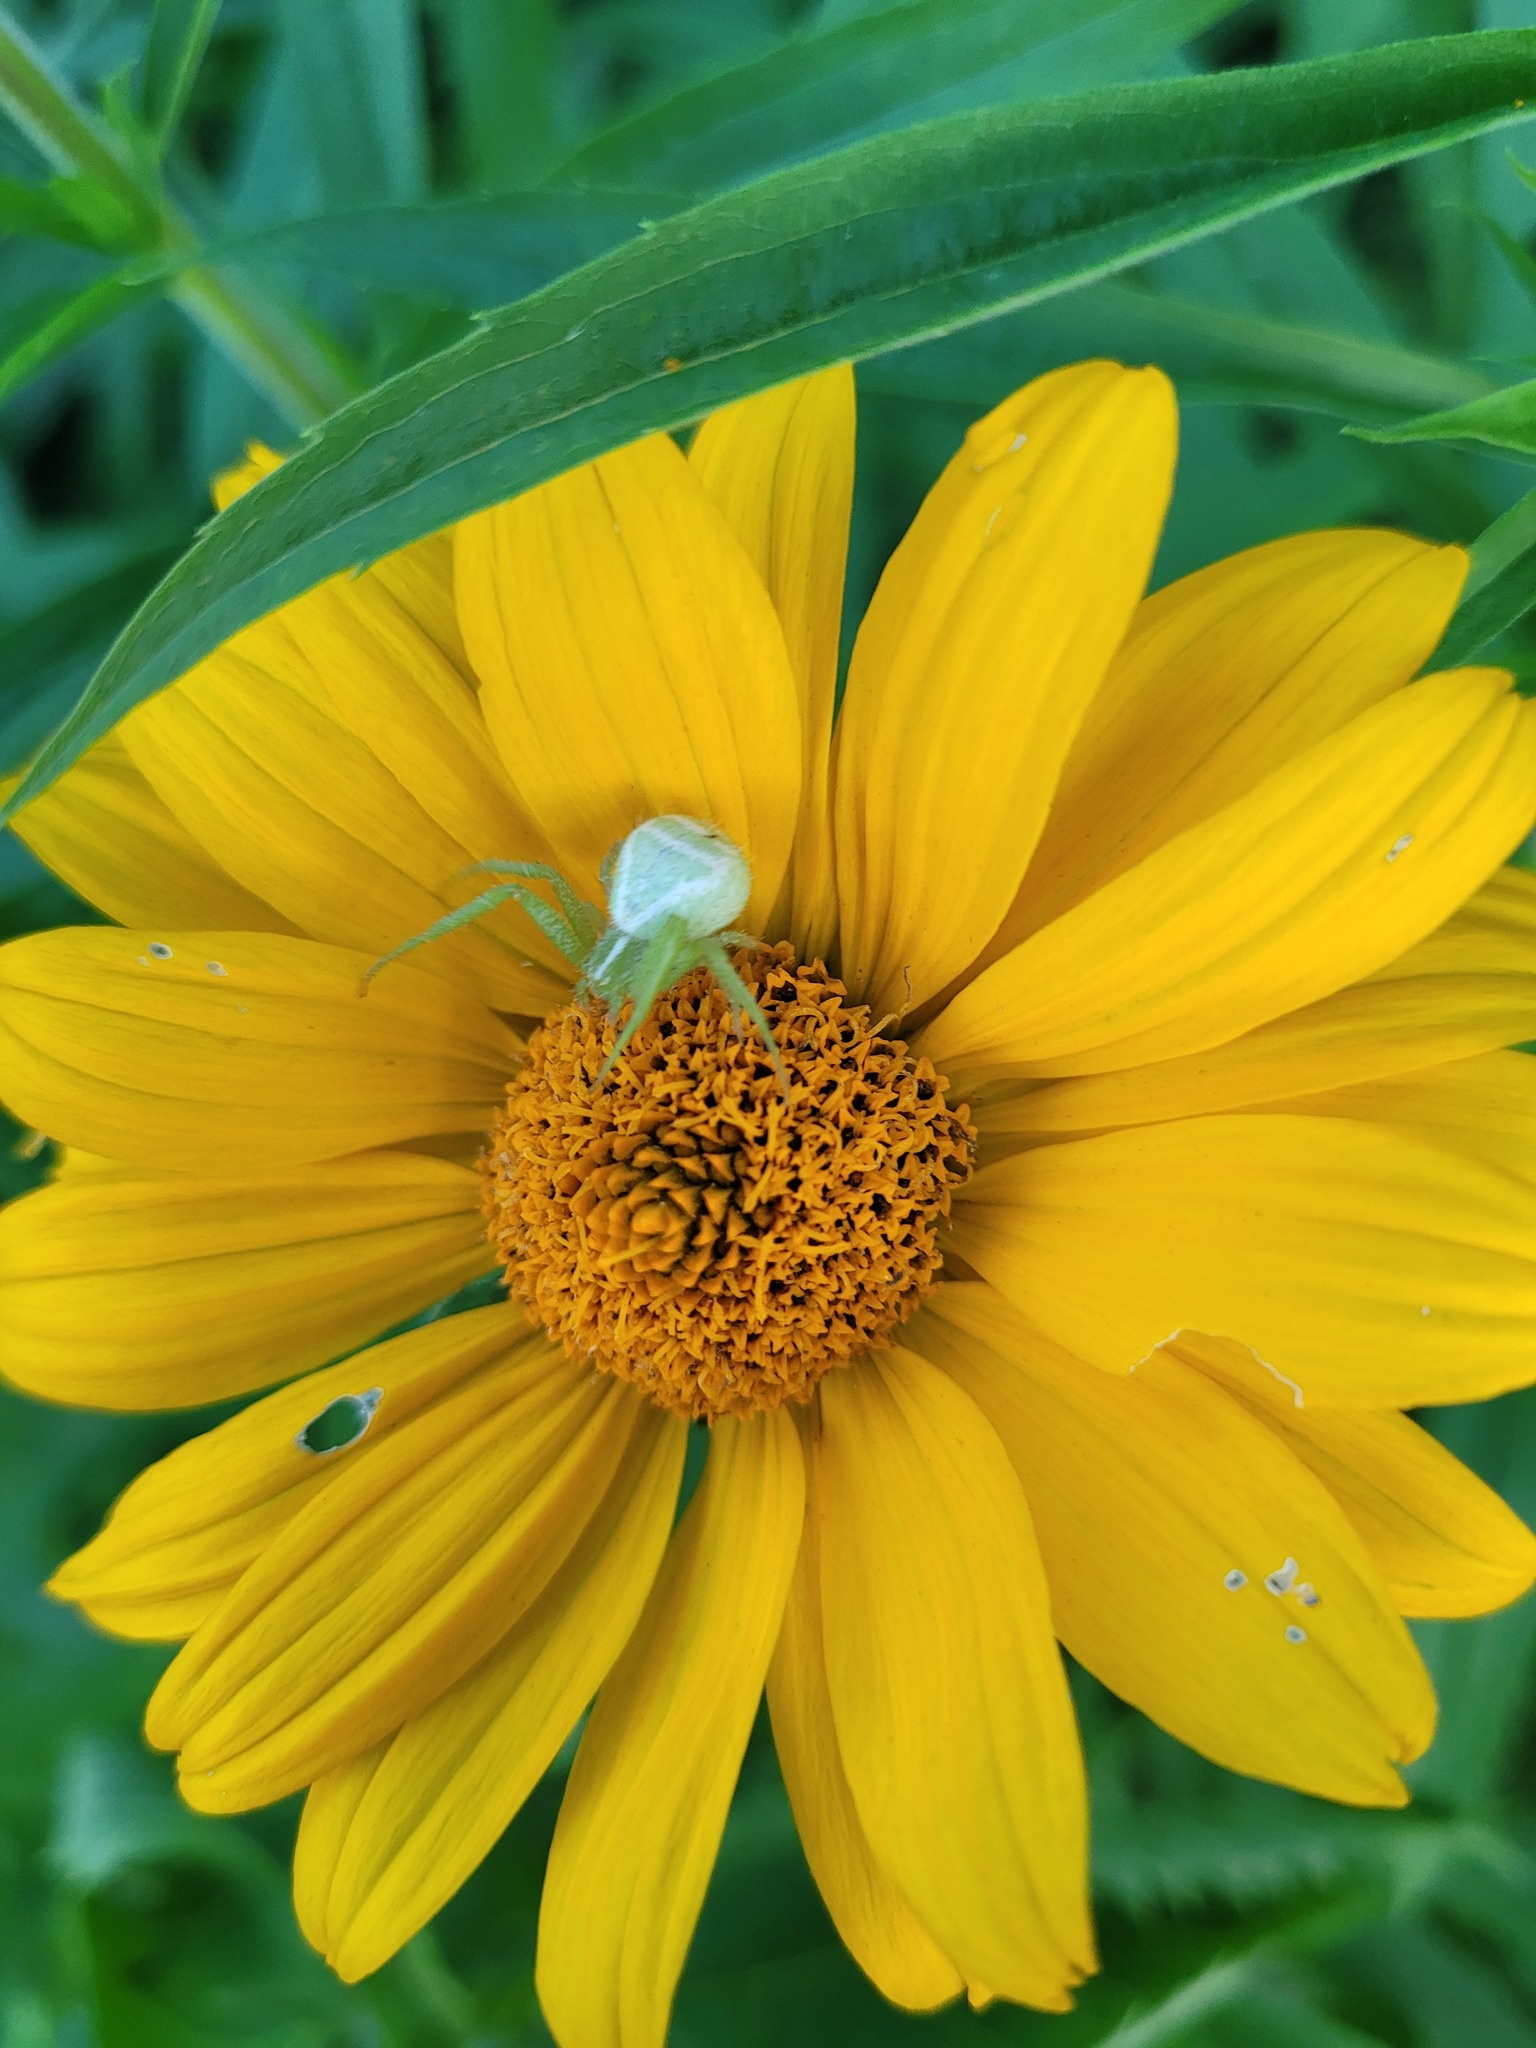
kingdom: Animalia
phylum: Arthropoda
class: Arachnida
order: Araneae
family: Thomisidae
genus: Heriaeus
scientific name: Heriaeus graminicola
